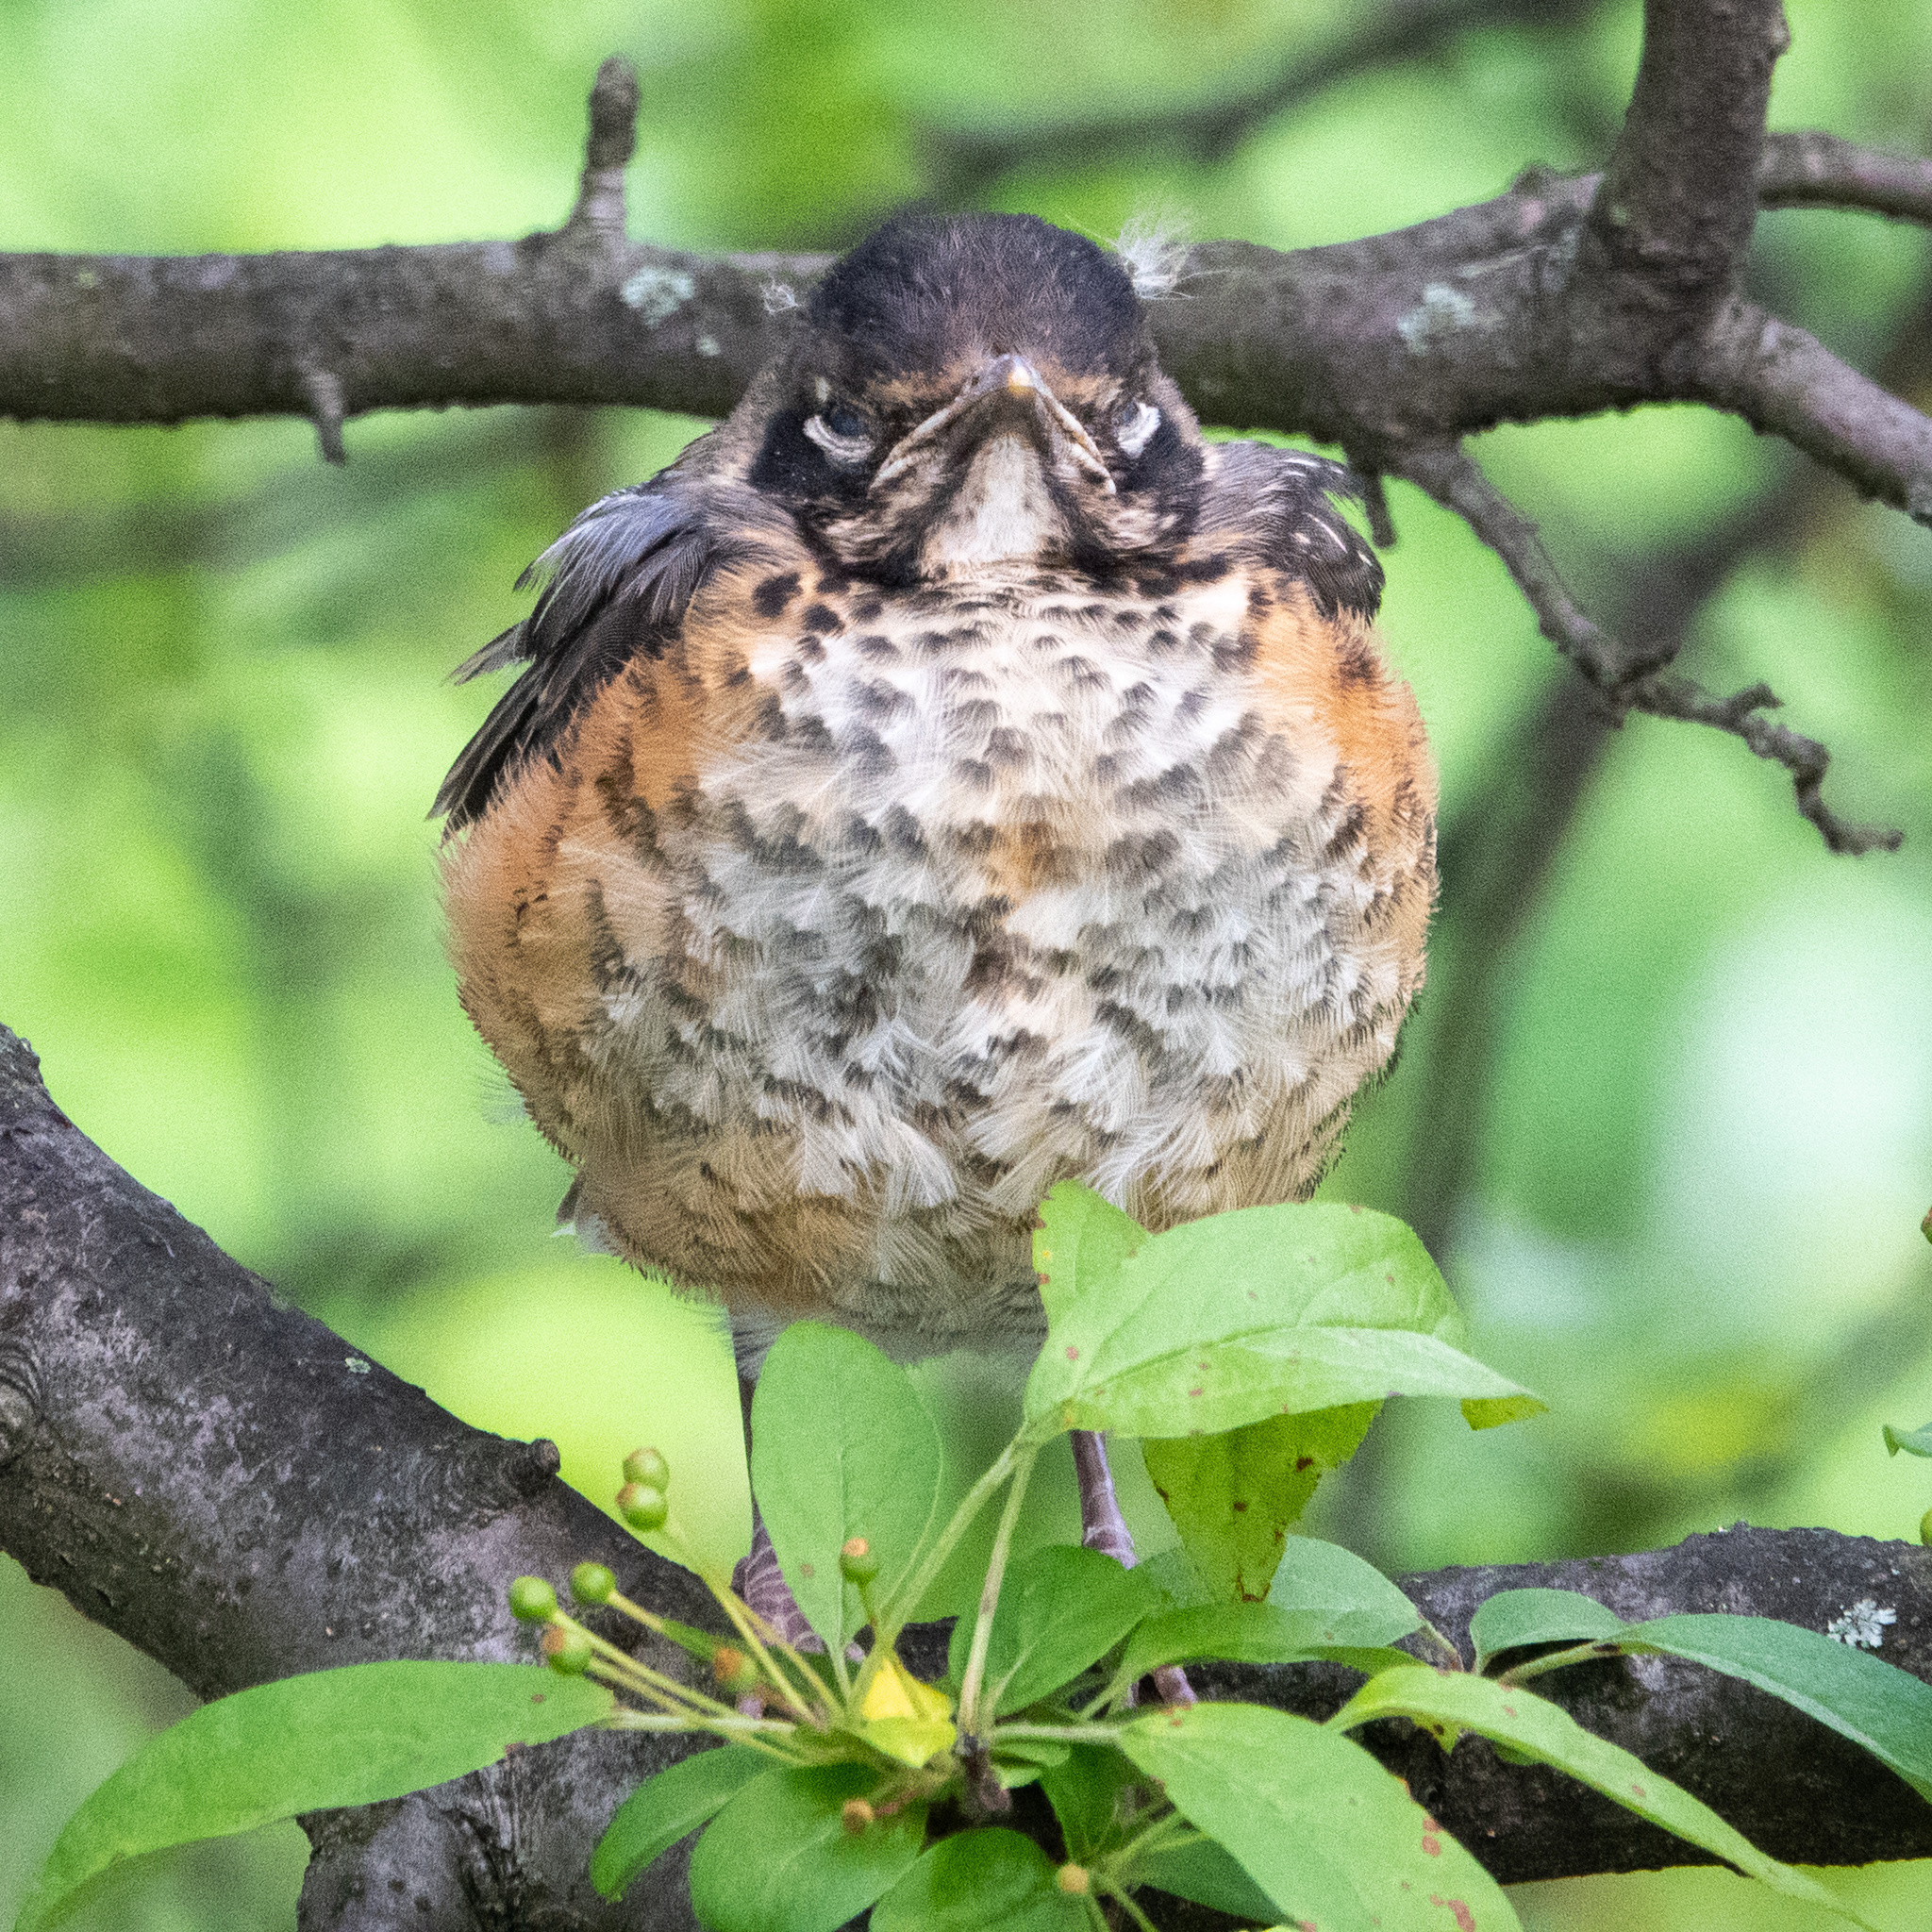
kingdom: Animalia
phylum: Chordata
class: Aves
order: Passeriformes
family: Turdidae
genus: Turdus
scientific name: Turdus migratorius
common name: American robin
